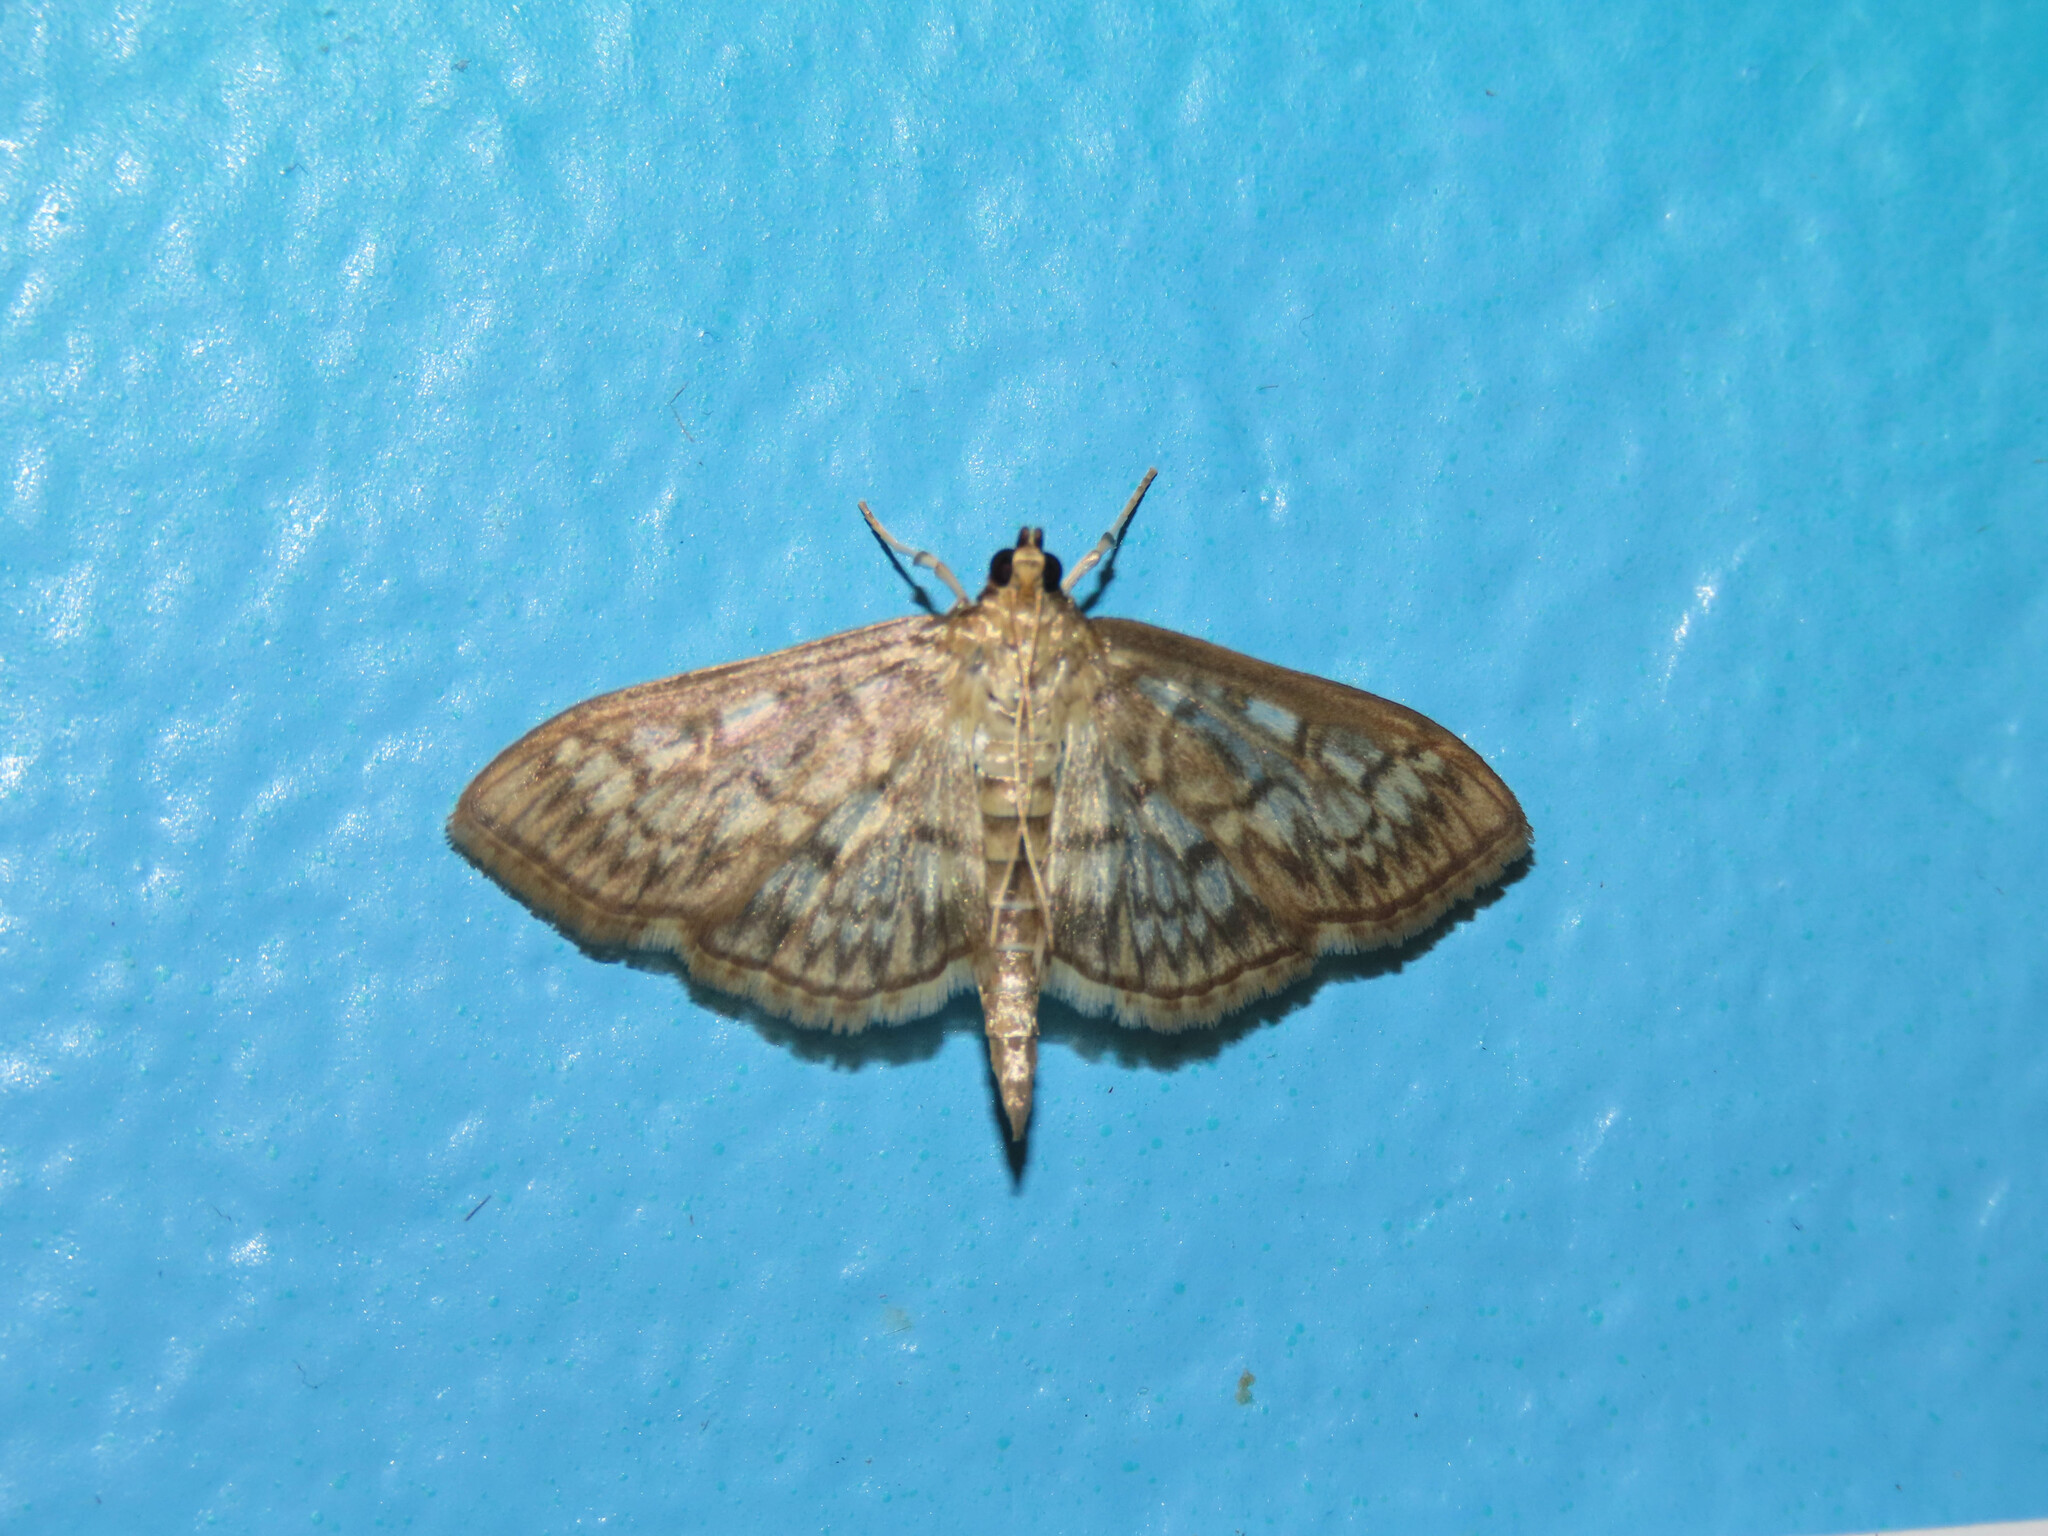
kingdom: Animalia
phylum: Arthropoda
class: Insecta
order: Lepidoptera
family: Crambidae
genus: Herpetogramma
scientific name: Herpetogramma pertextalis
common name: Bold-feathered grass moth
